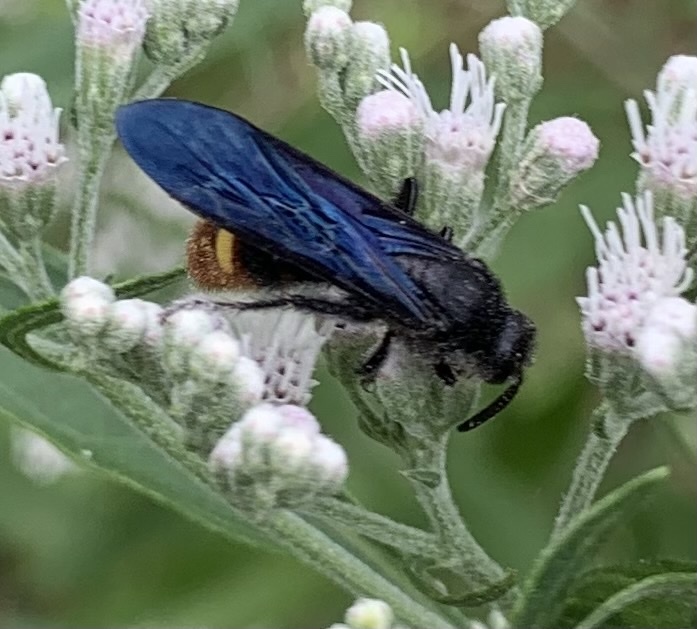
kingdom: Animalia
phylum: Arthropoda
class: Insecta
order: Hymenoptera
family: Scoliidae
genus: Scolia
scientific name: Scolia dubia
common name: Blue-winged scoliid wasp
